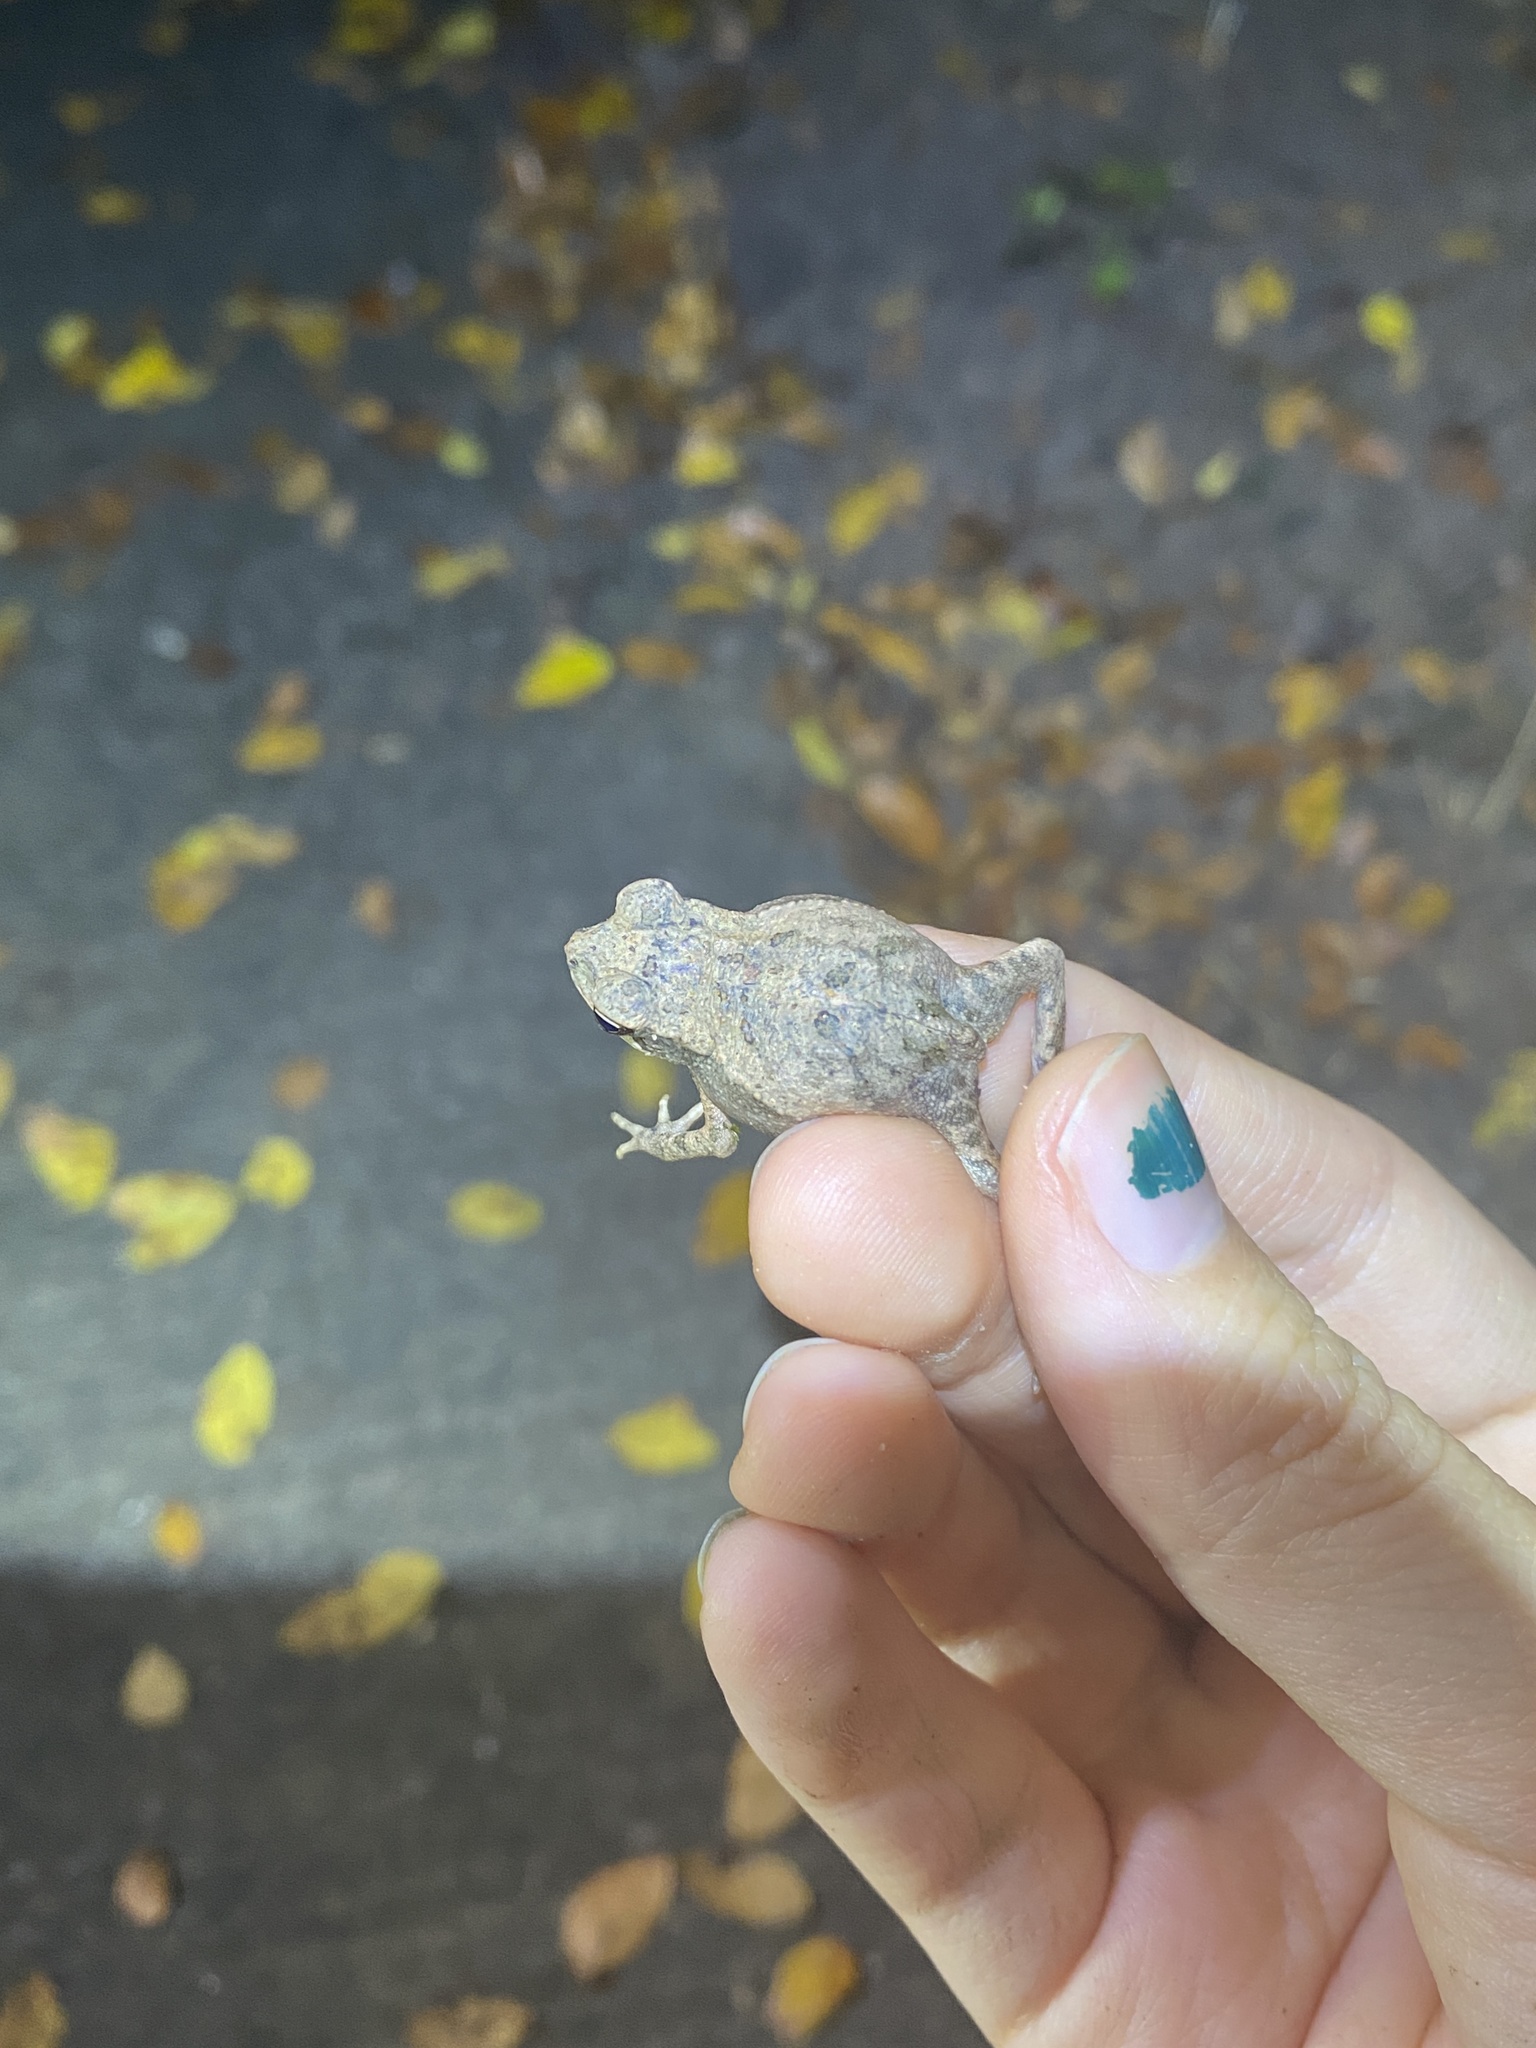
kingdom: Animalia
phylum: Chordata
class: Amphibia
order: Anura
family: Bufonidae
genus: Incilius
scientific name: Incilius nebulifer
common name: Gulf coast toad
